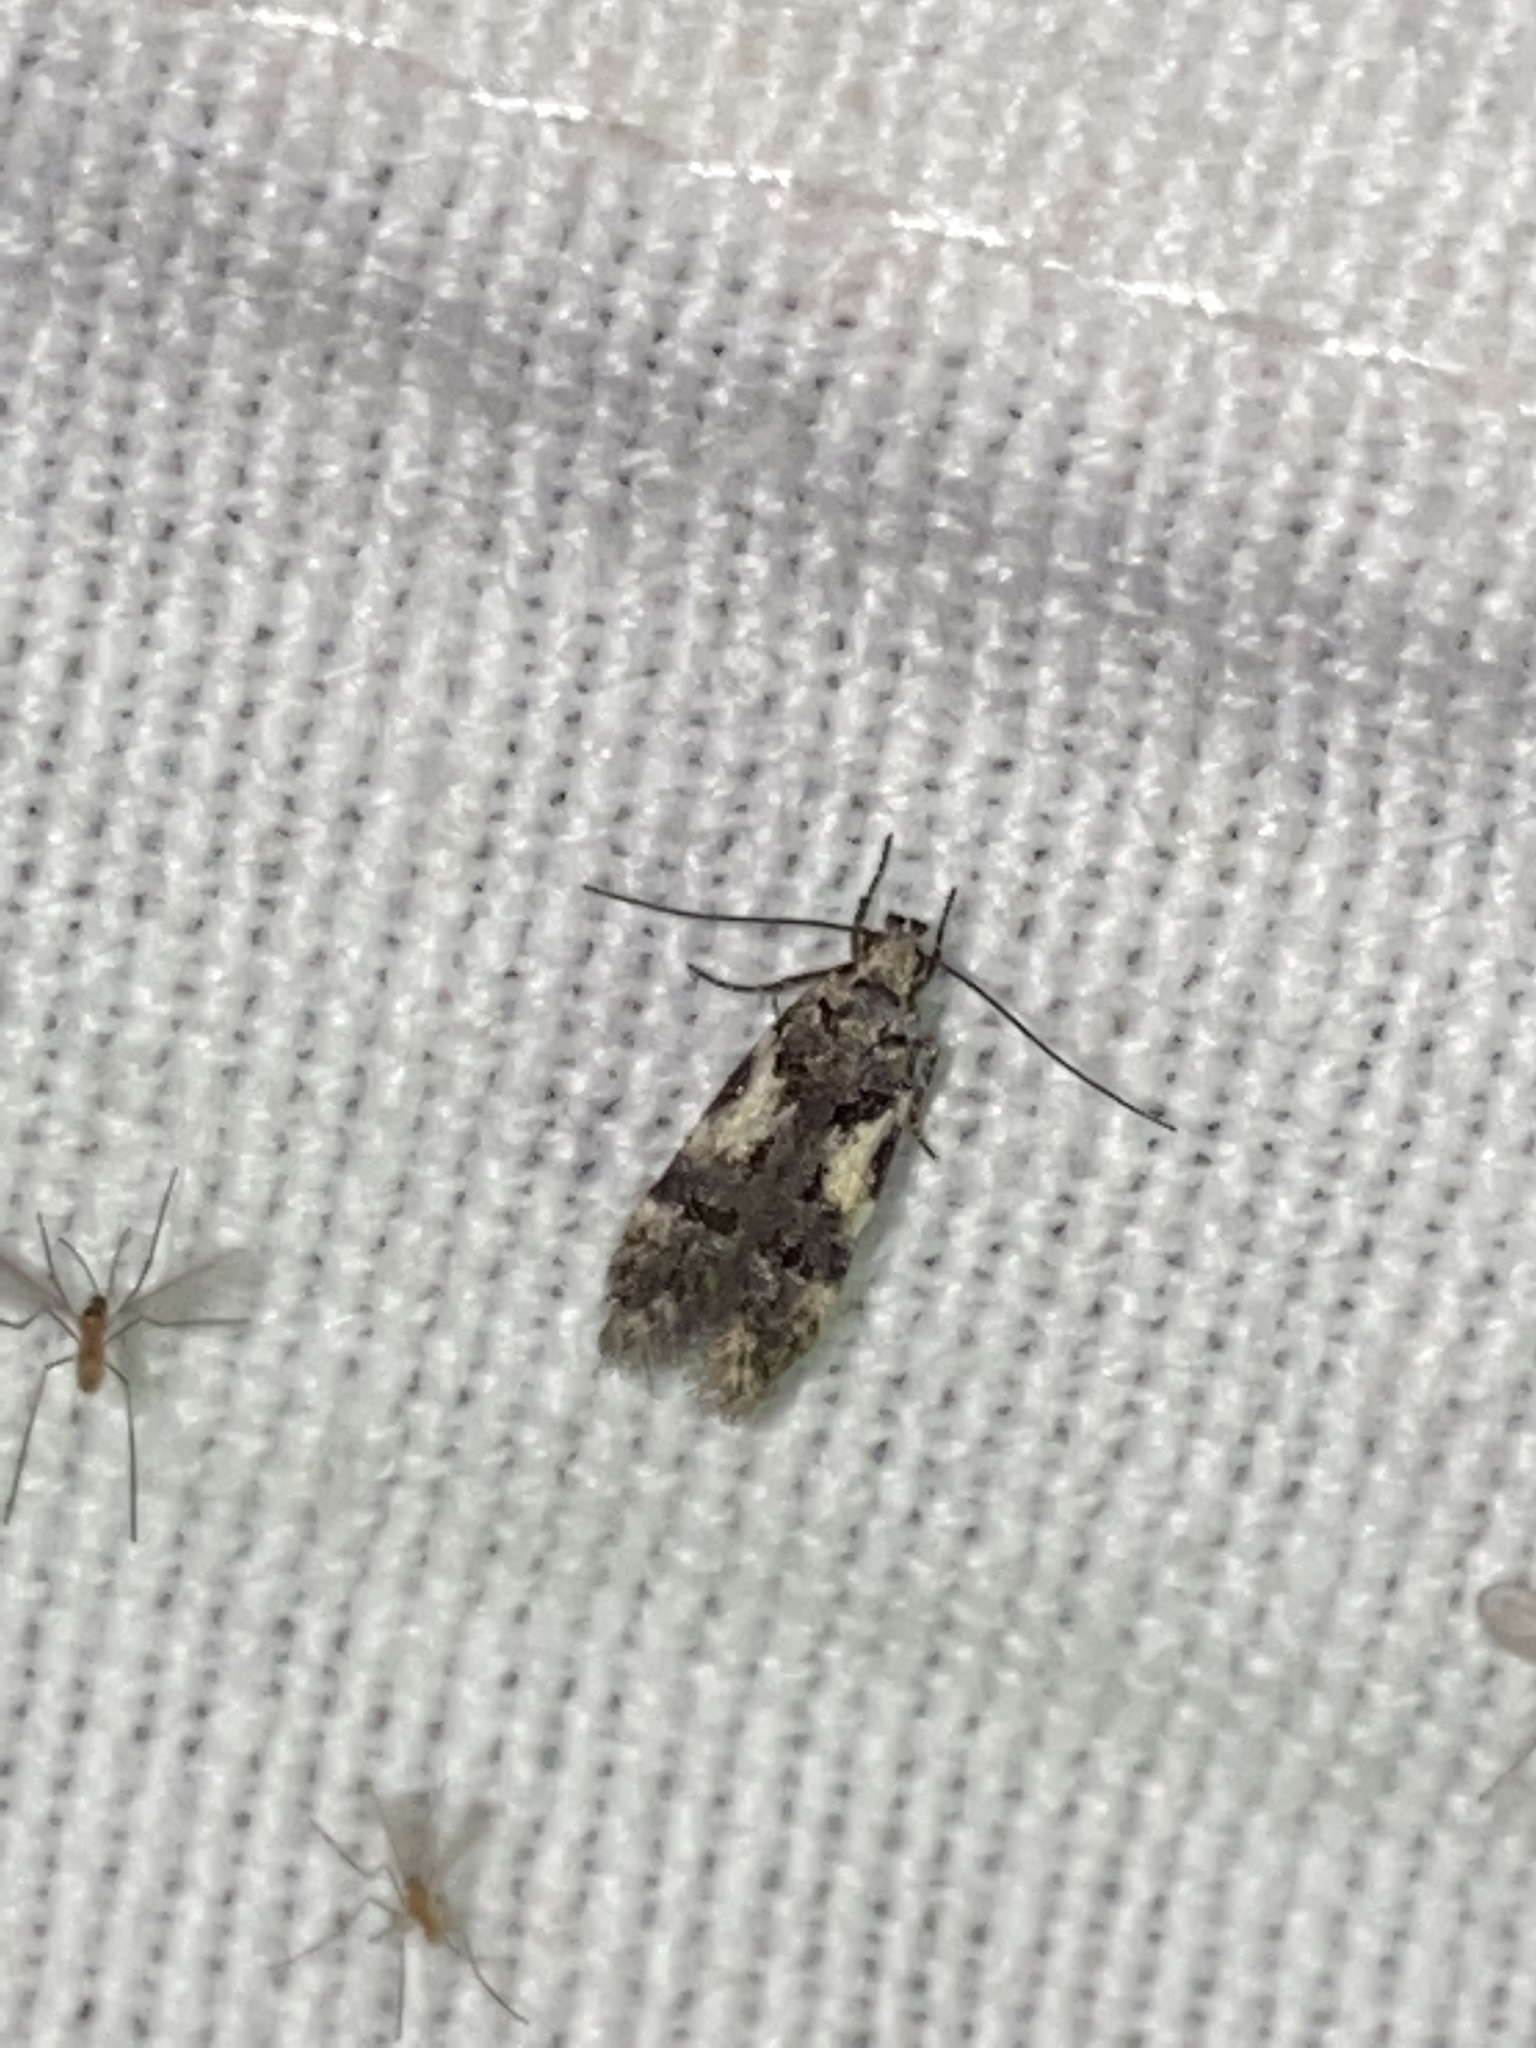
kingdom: Animalia
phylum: Arthropoda
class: Insecta
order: Lepidoptera
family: Gelechiidae
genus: Teleiodes
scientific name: Teleiodes luculella
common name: Crescent groundling
